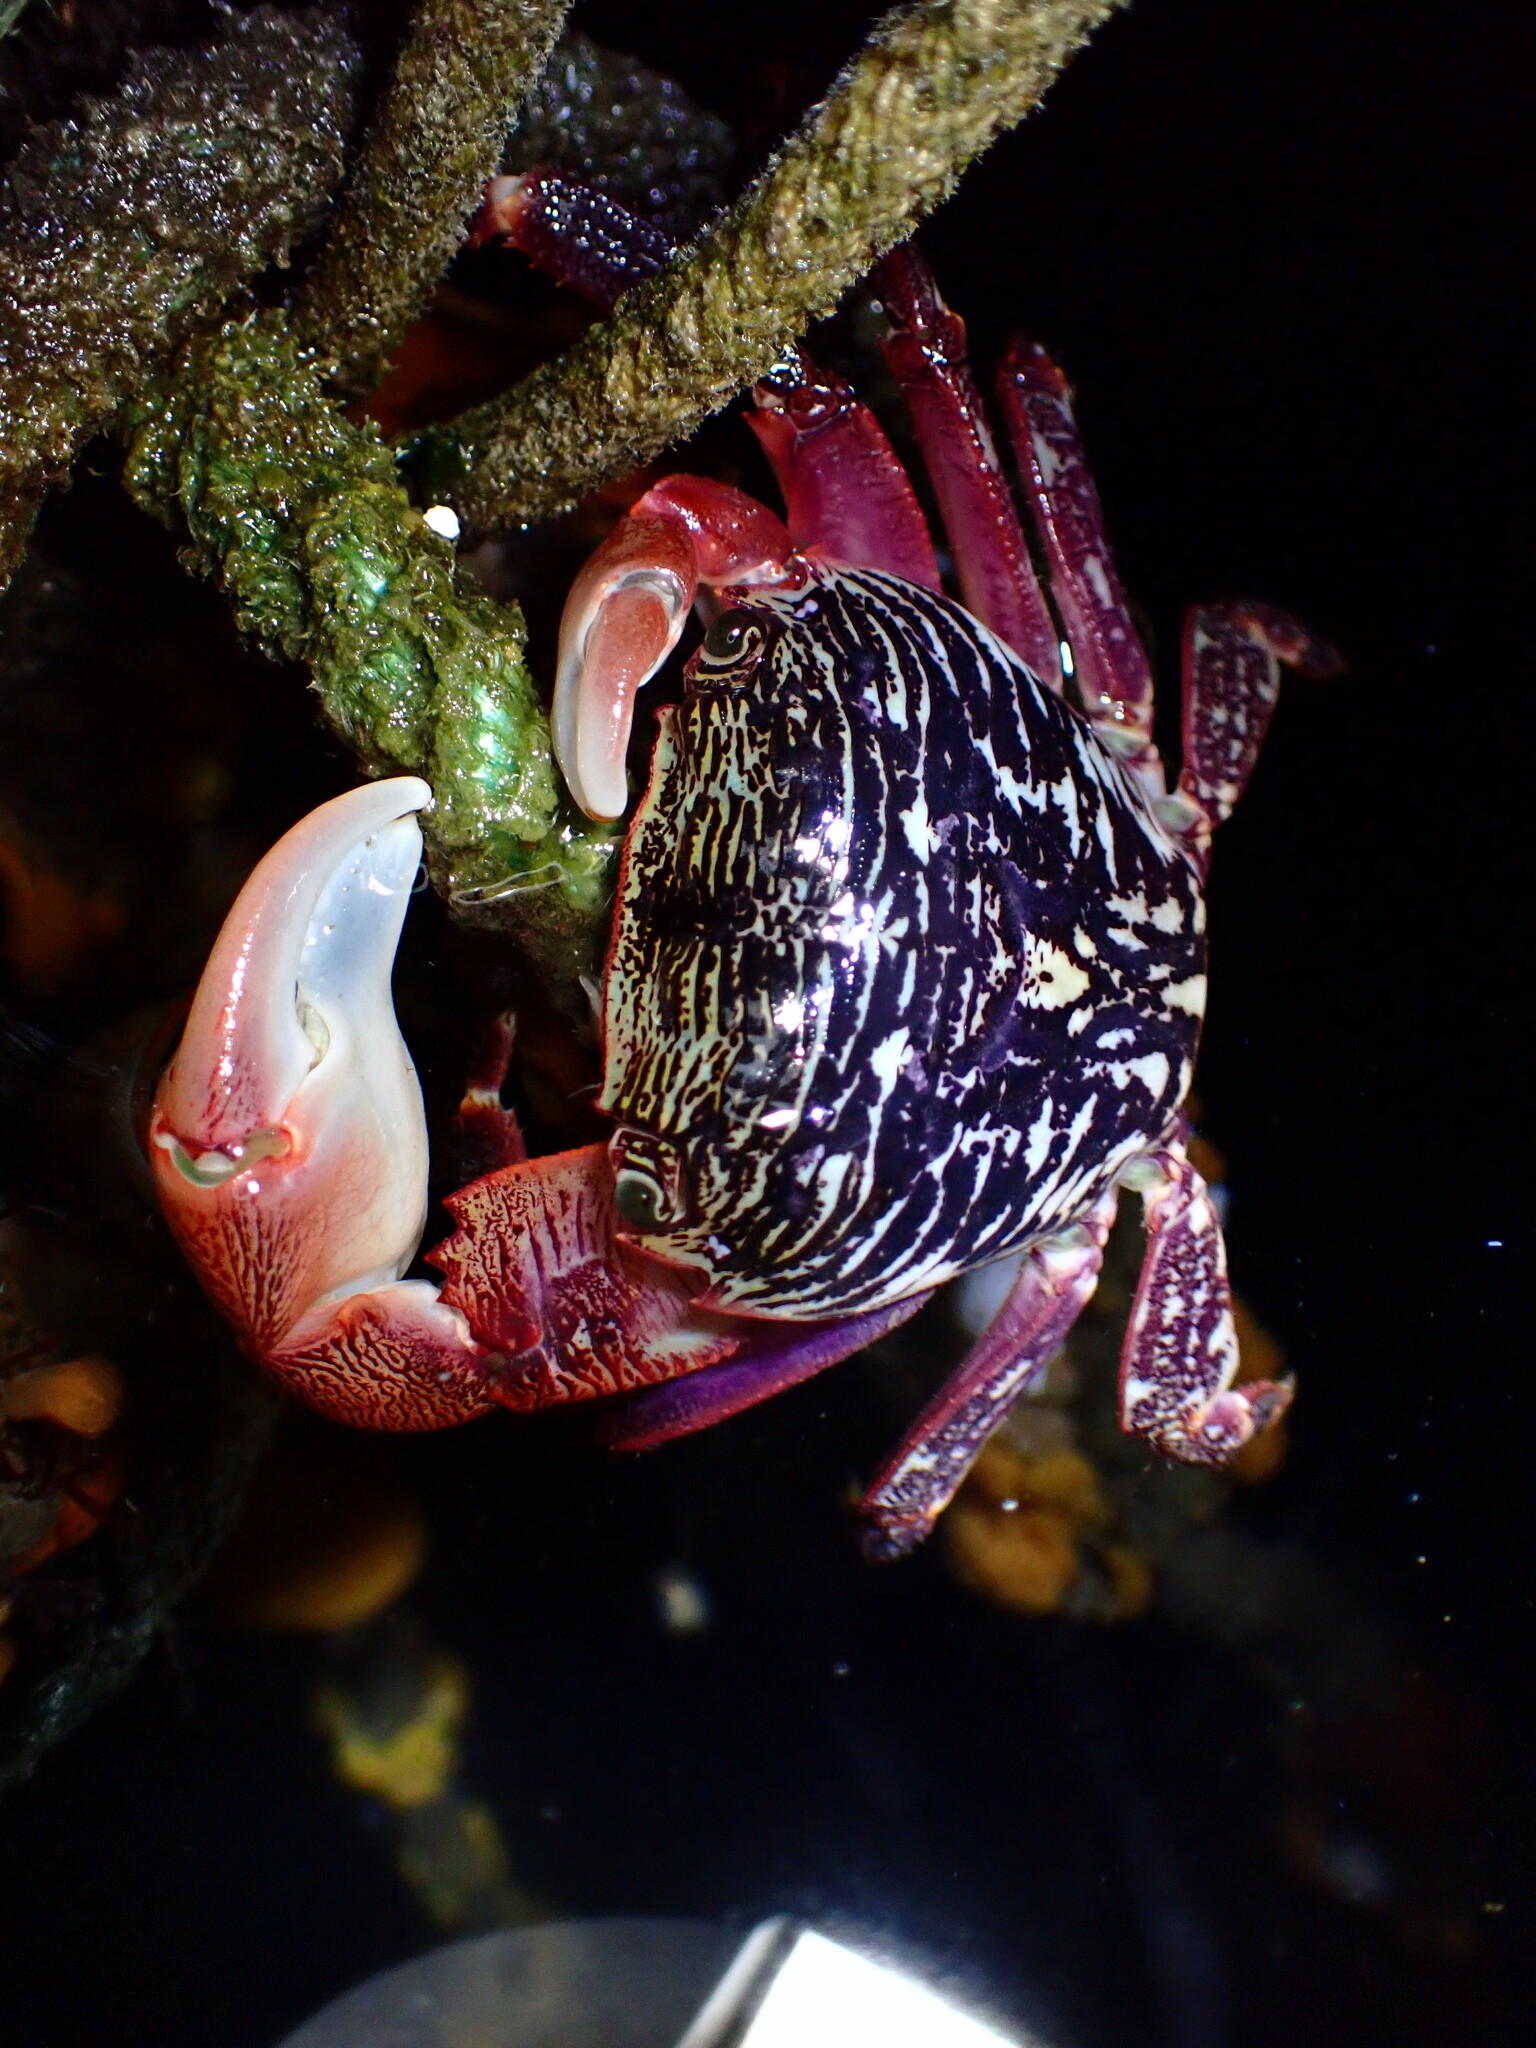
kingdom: Animalia
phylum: Arthropoda
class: Malacostraca
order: Decapoda
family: Grapsidae
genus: Pachygrapsus
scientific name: Pachygrapsus crassipes
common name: Striped shore crab
